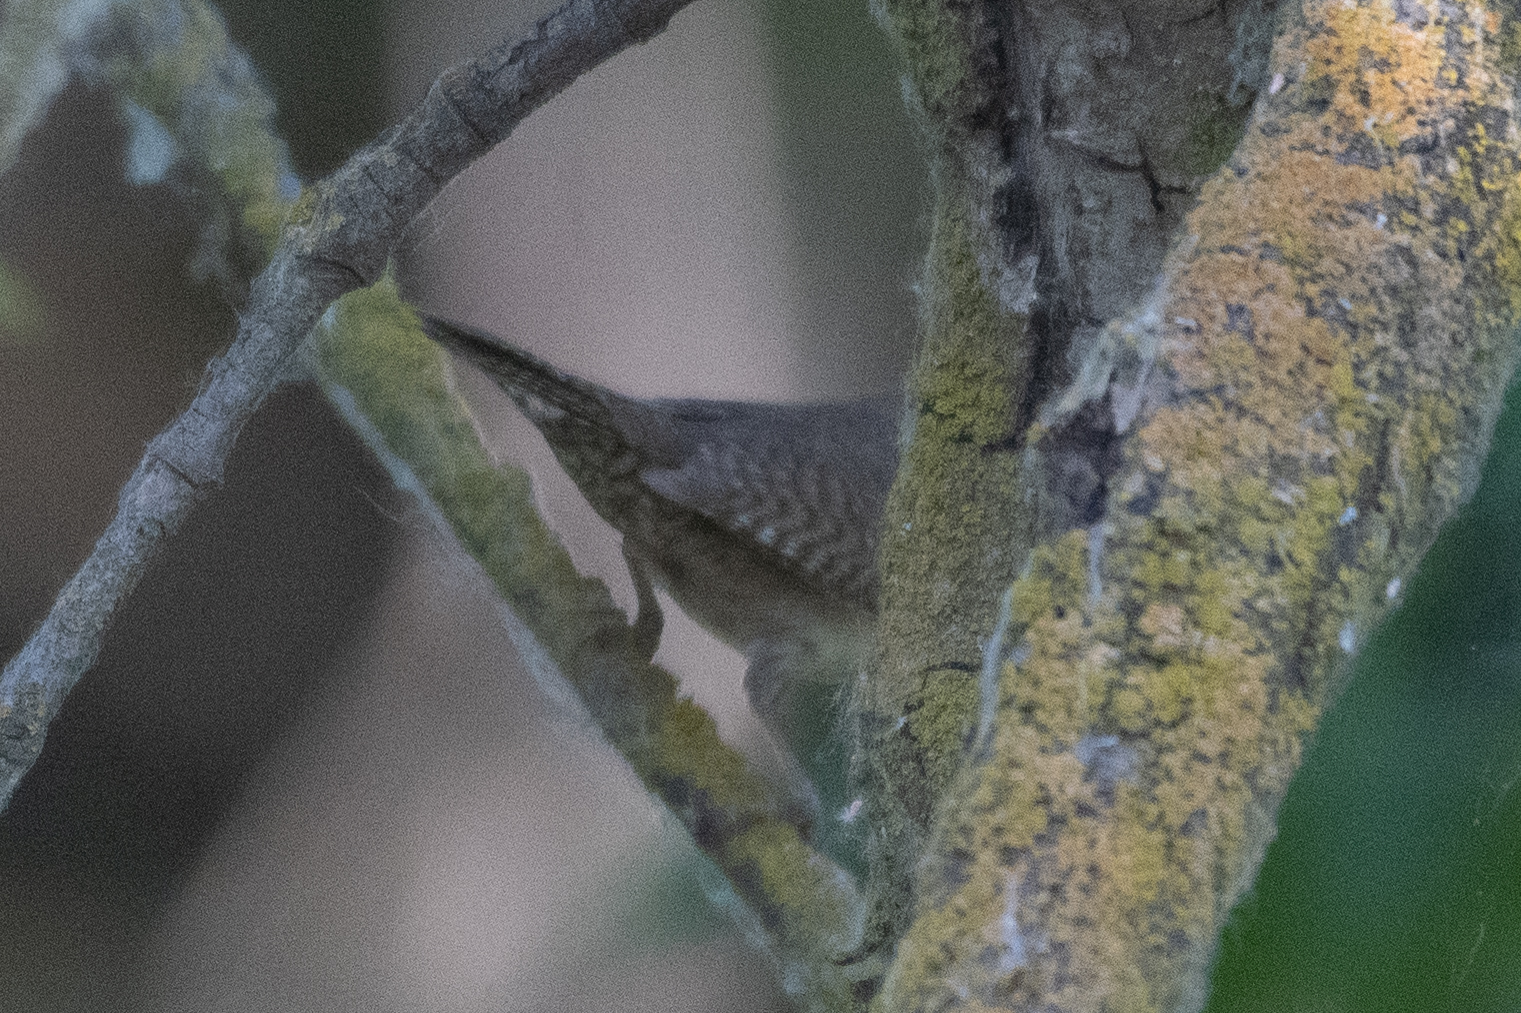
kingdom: Animalia
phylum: Chordata
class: Aves
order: Passeriformes
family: Troglodytidae
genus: Troglodytes
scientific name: Troglodytes aedon
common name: House wren
